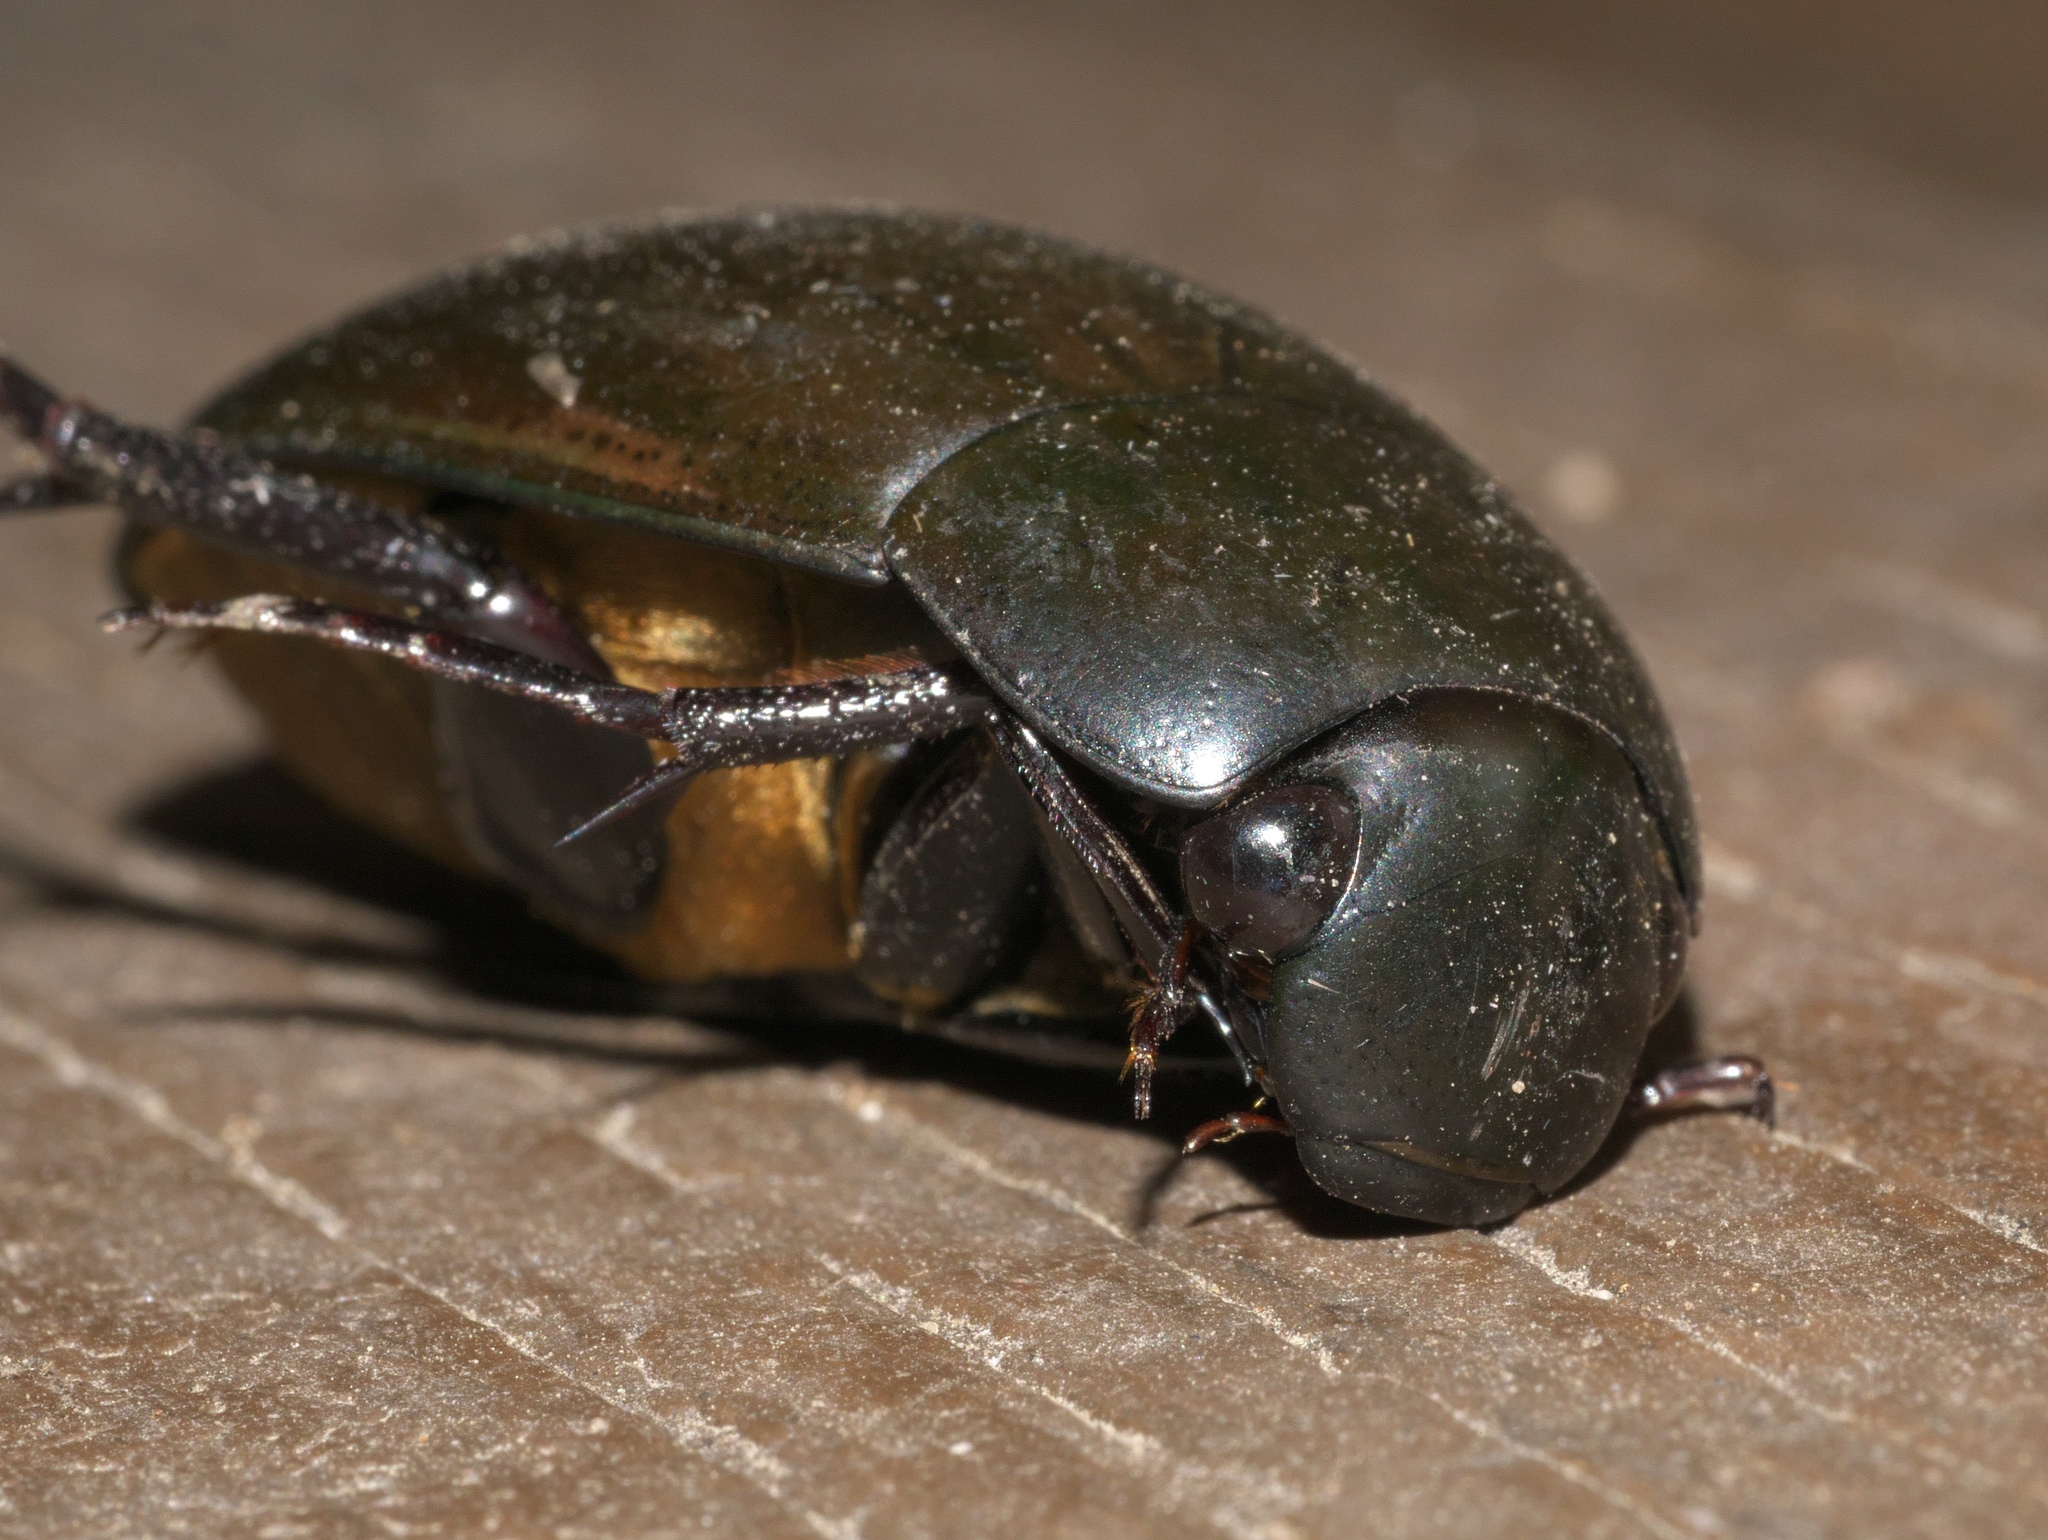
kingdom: Animalia
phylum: Arthropoda
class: Insecta
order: Coleoptera
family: Hydrophilidae
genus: Hydrophilus
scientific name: Hydrophilus ovatus
